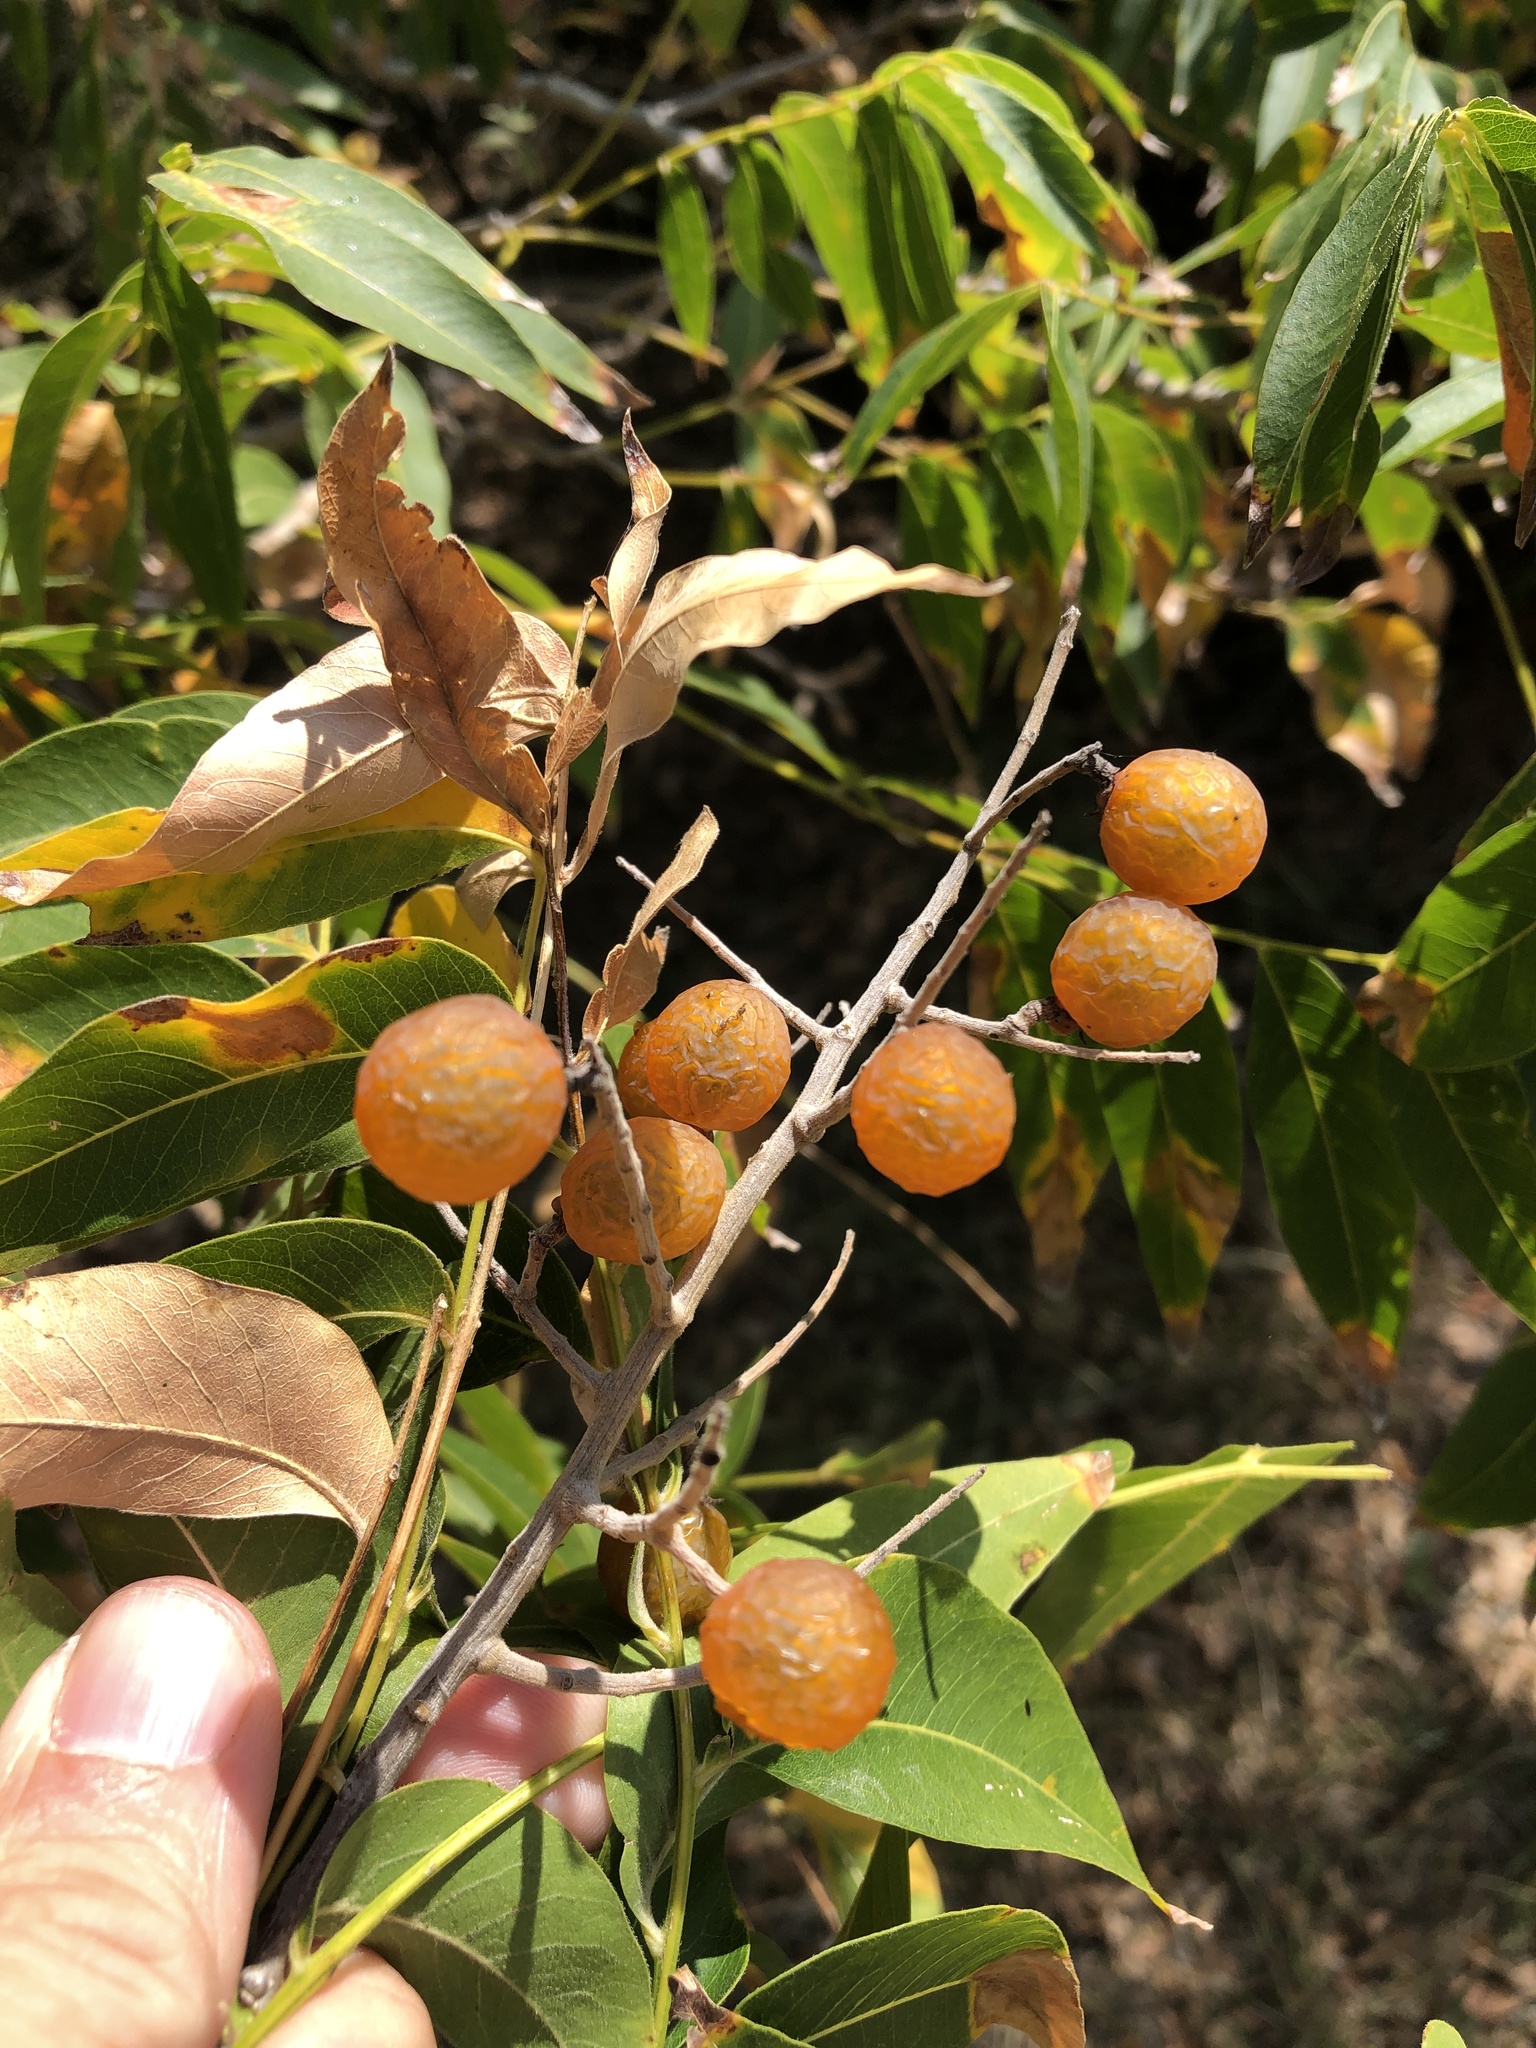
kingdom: Plantae
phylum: Tracheophyta
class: Magnoliopsida
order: Sapindales
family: Sapindaceae
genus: Sapindus
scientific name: Sapindus drummondii
